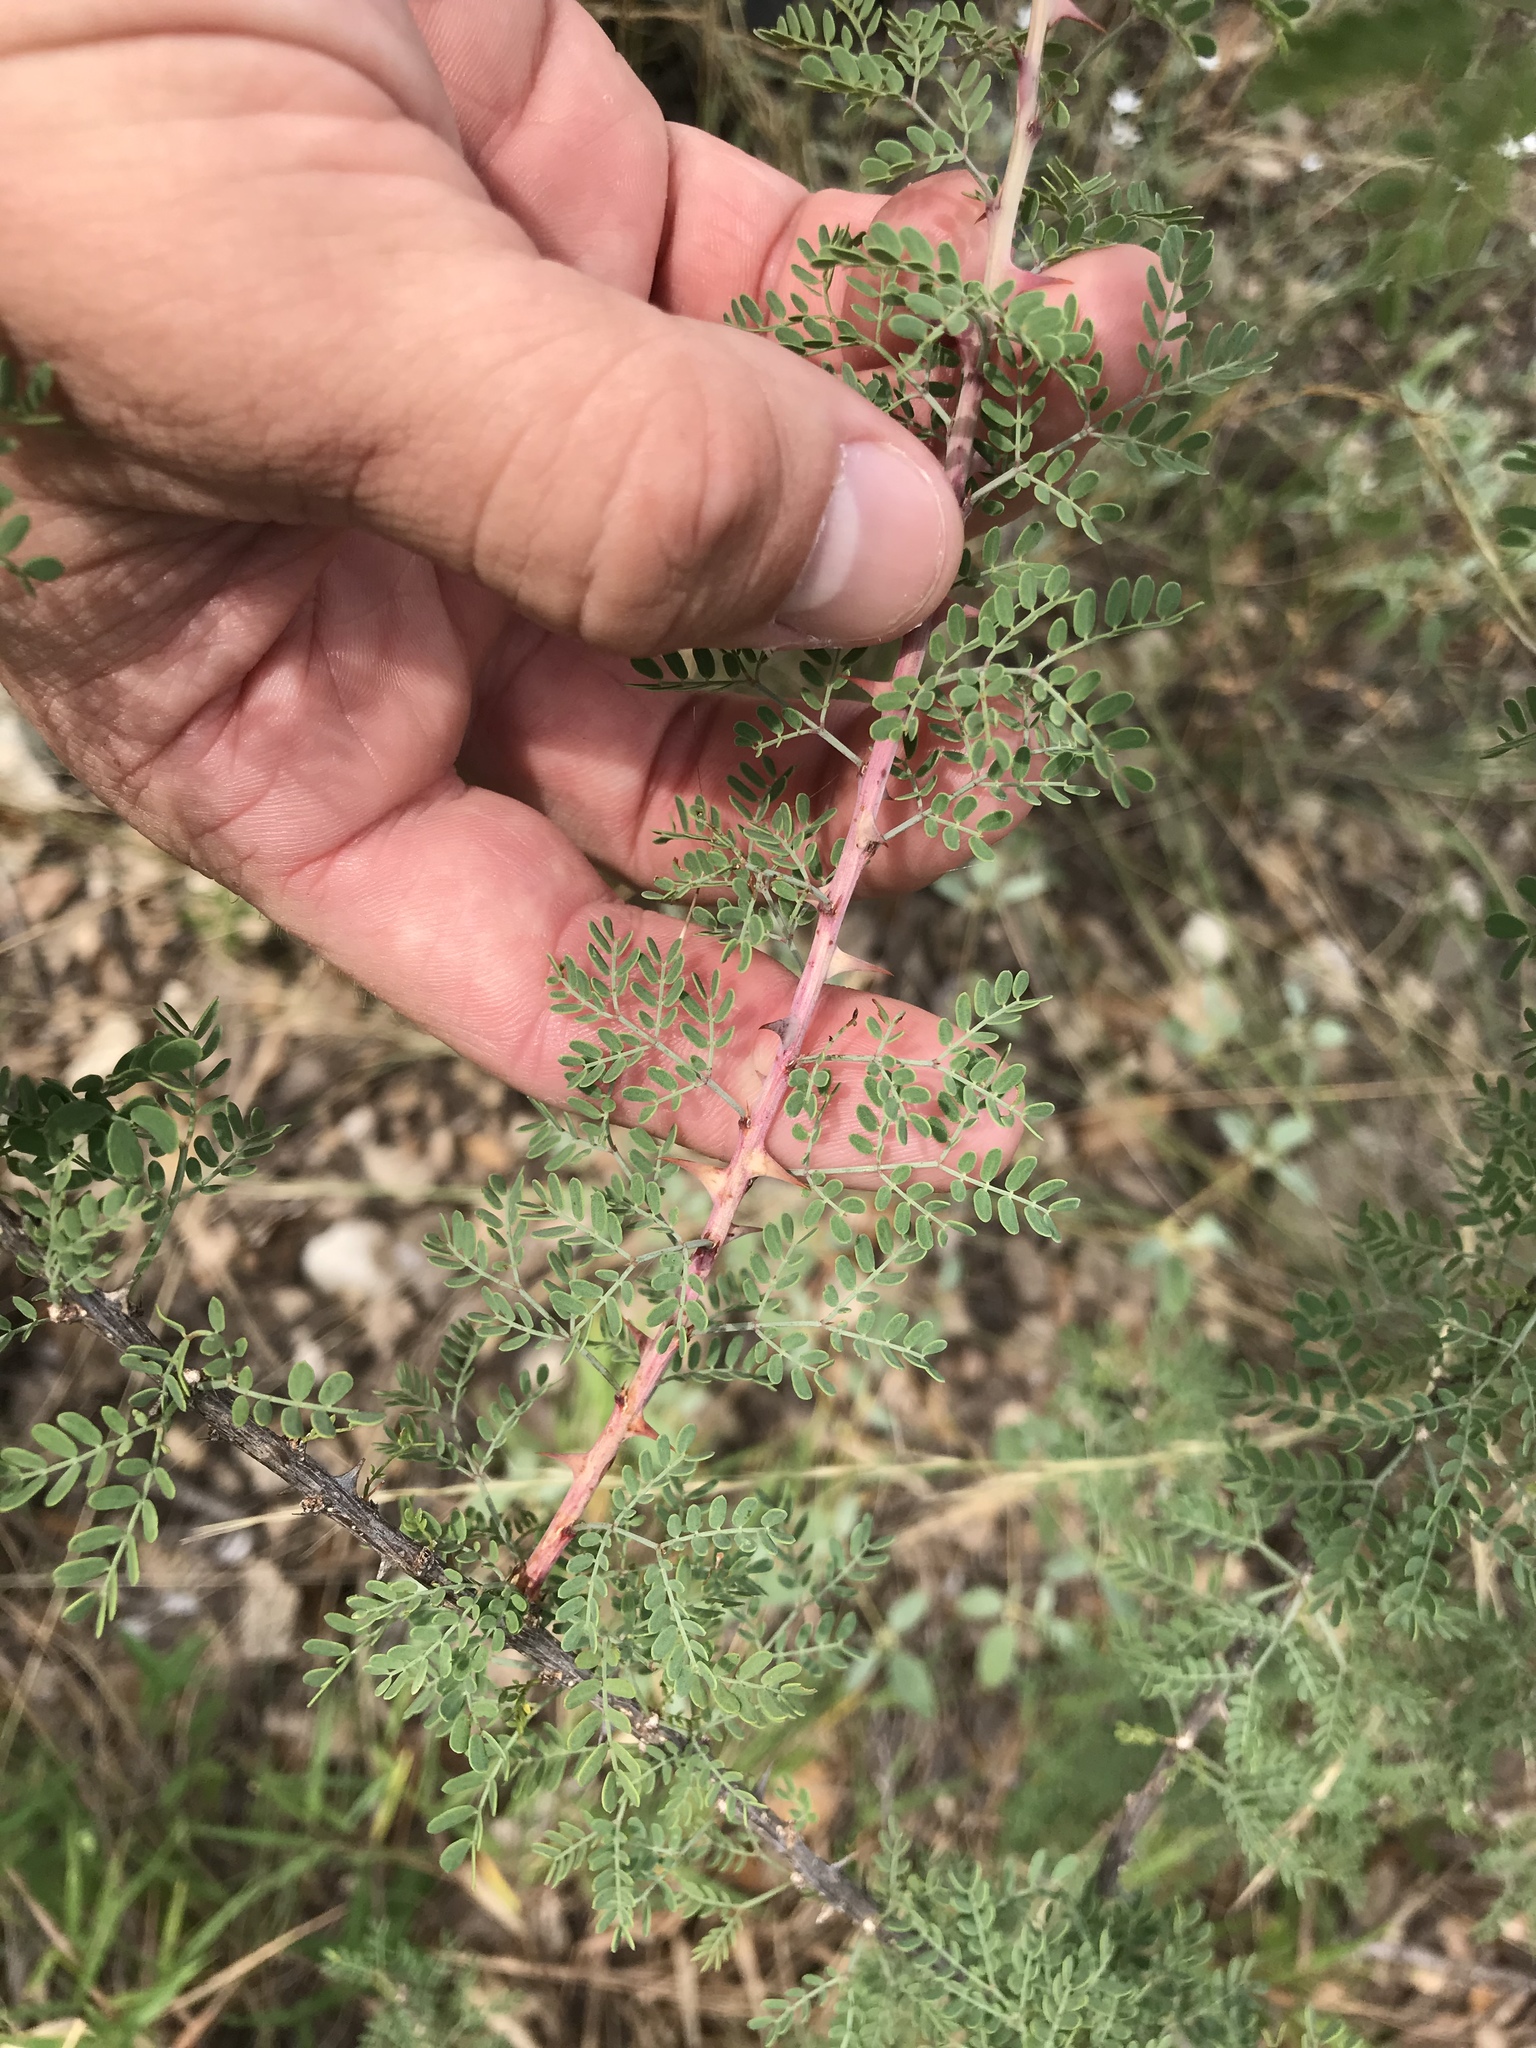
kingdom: Plantae
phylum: Tracheophyta
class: Magnoliopsida
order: Fabales
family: Fabaceae
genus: Mimosa
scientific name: Mimosa borealis
